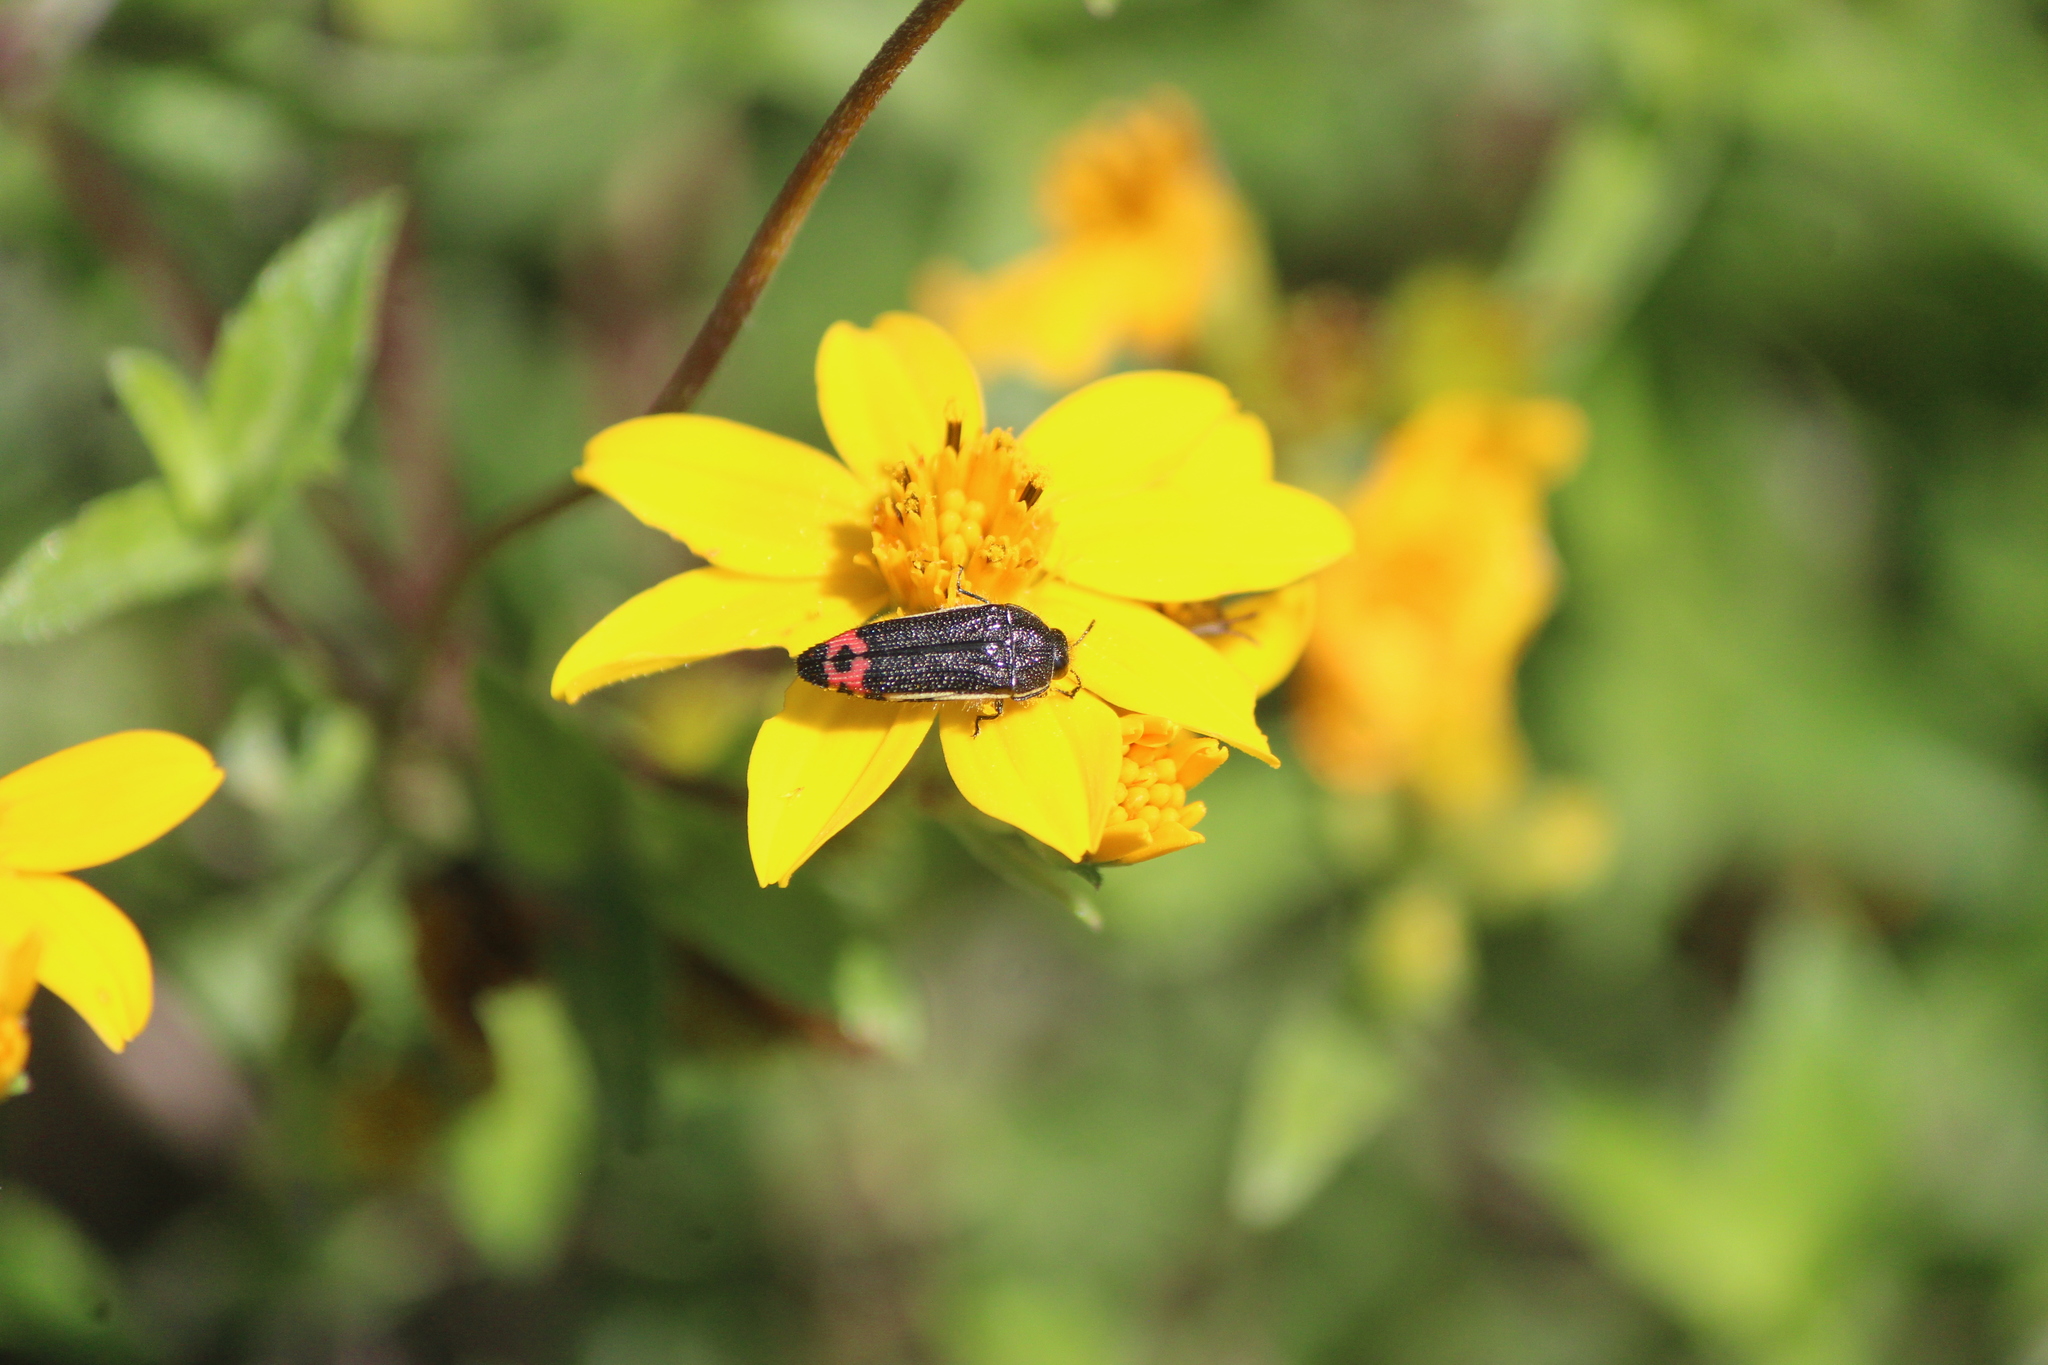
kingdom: Animalia
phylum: Arthropoda
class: Insecta
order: Coleoptera
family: Buprestidae
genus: Acmaeodera
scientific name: Acmaeodera flavomarginata
